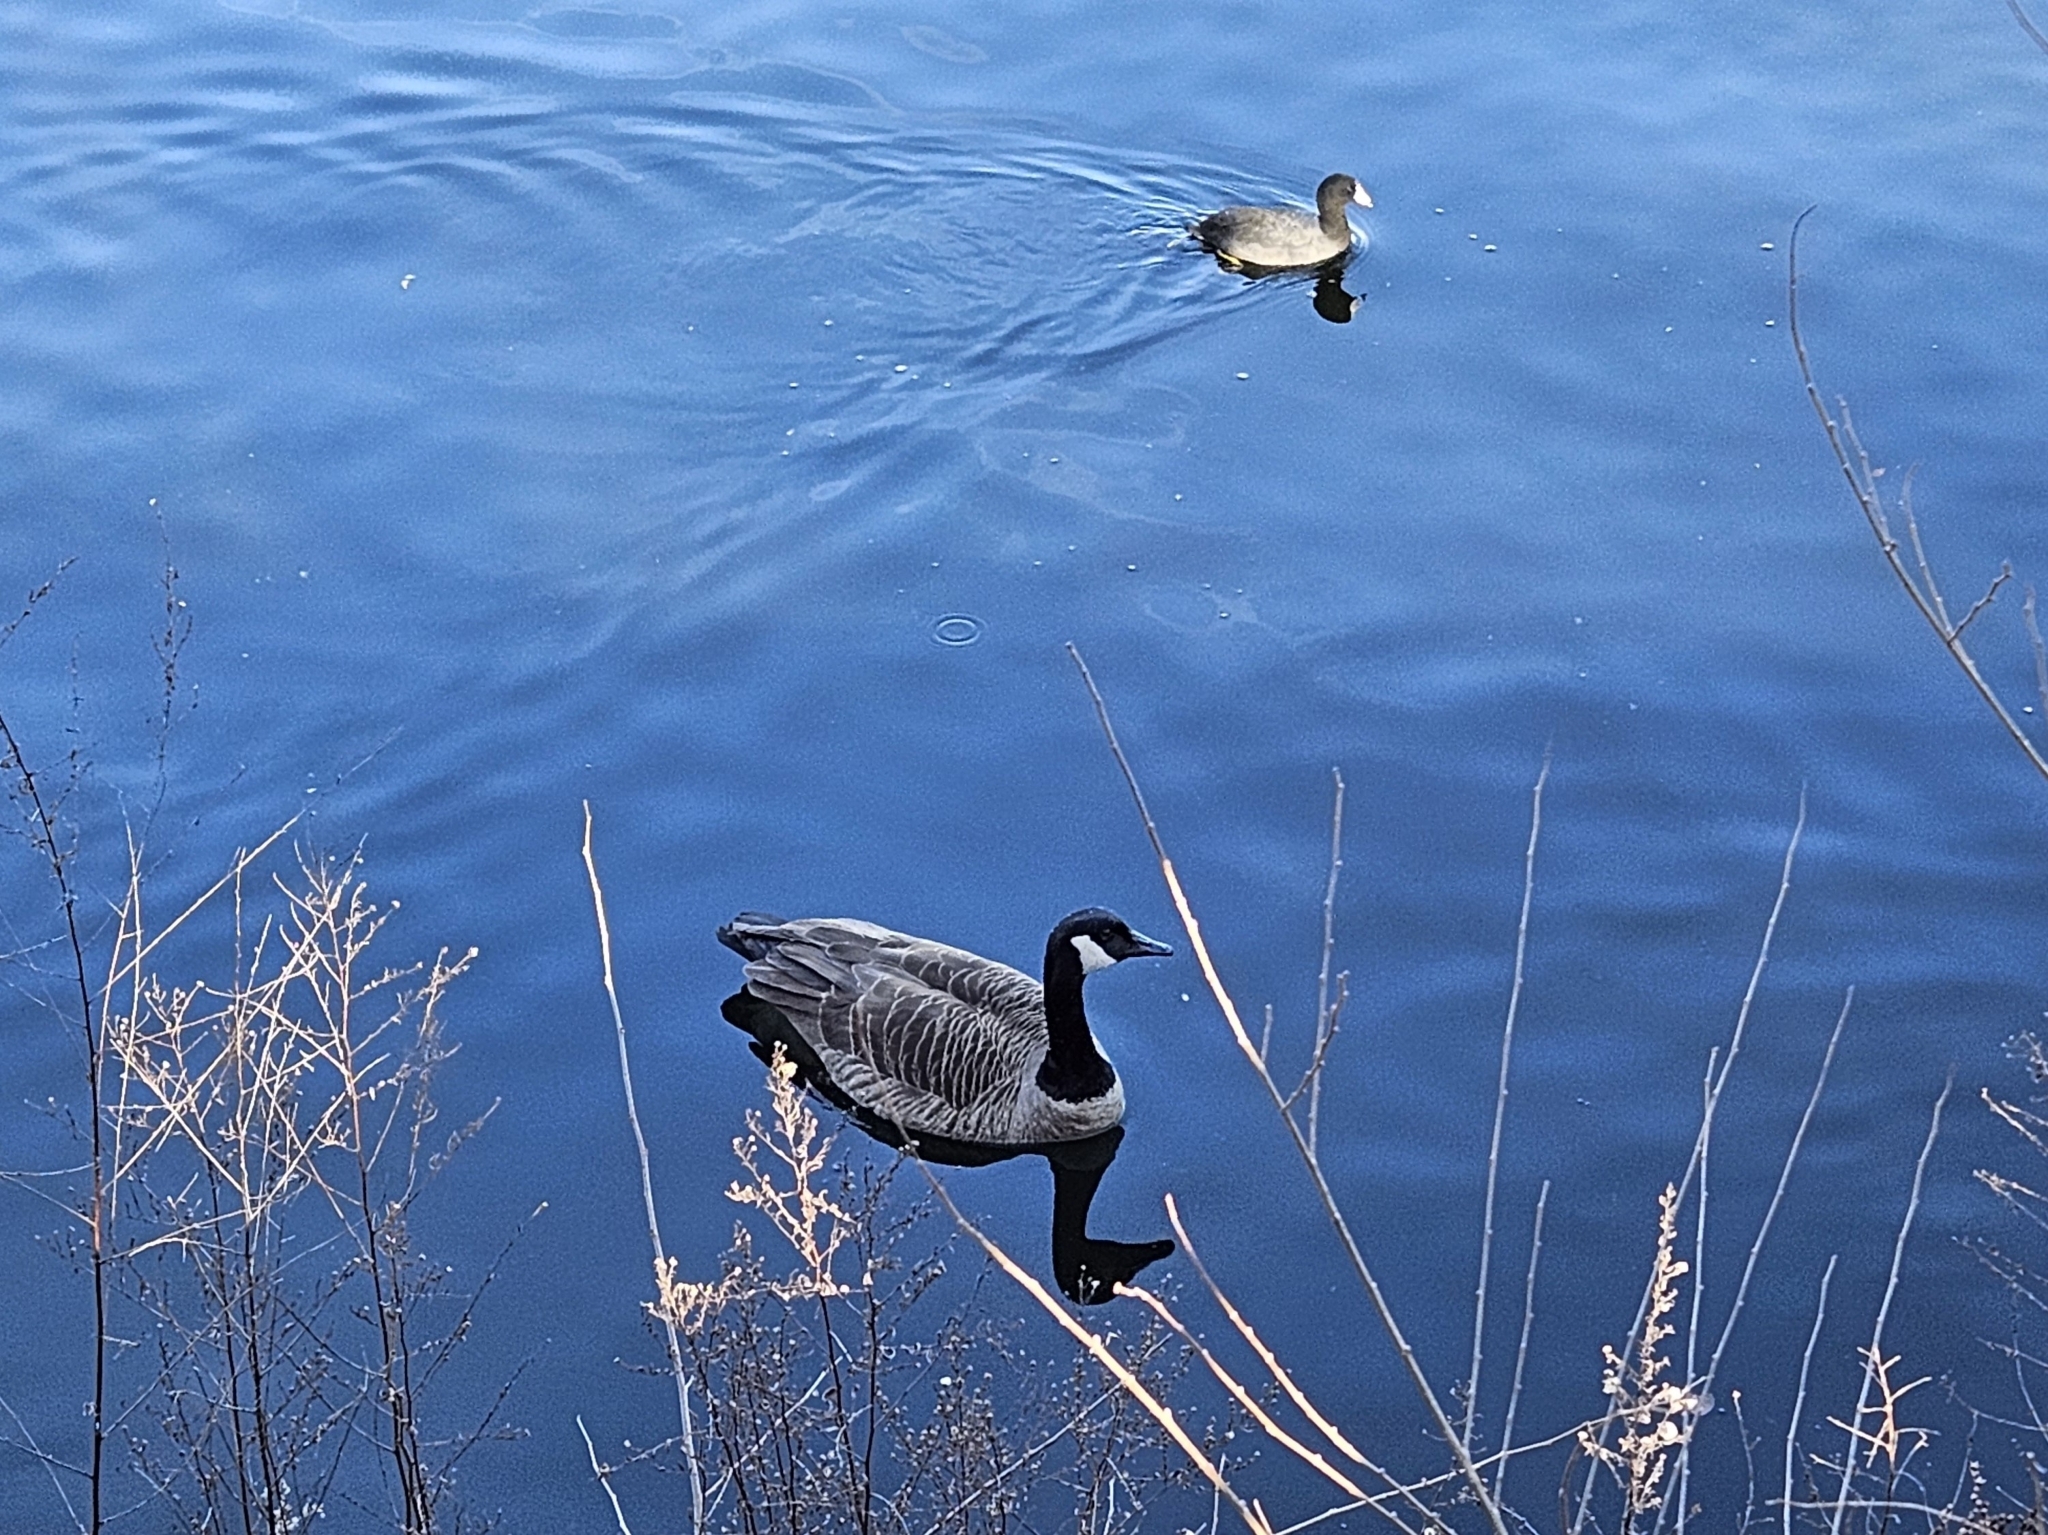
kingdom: Animalia
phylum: Chordata
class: Aves
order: Anseriformes
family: Anatidae
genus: Branta
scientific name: Branta canadensis
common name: Canada goose
